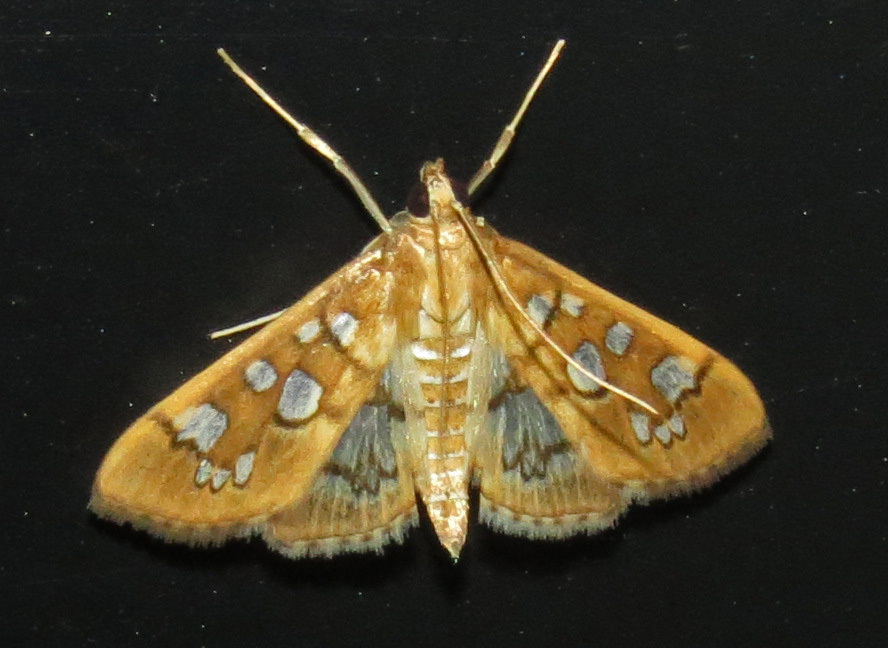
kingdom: Animalia
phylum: Arthropoda
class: Insecta
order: Lepidoptera
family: Crambidae
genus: Samea
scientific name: Samea baccatalis
